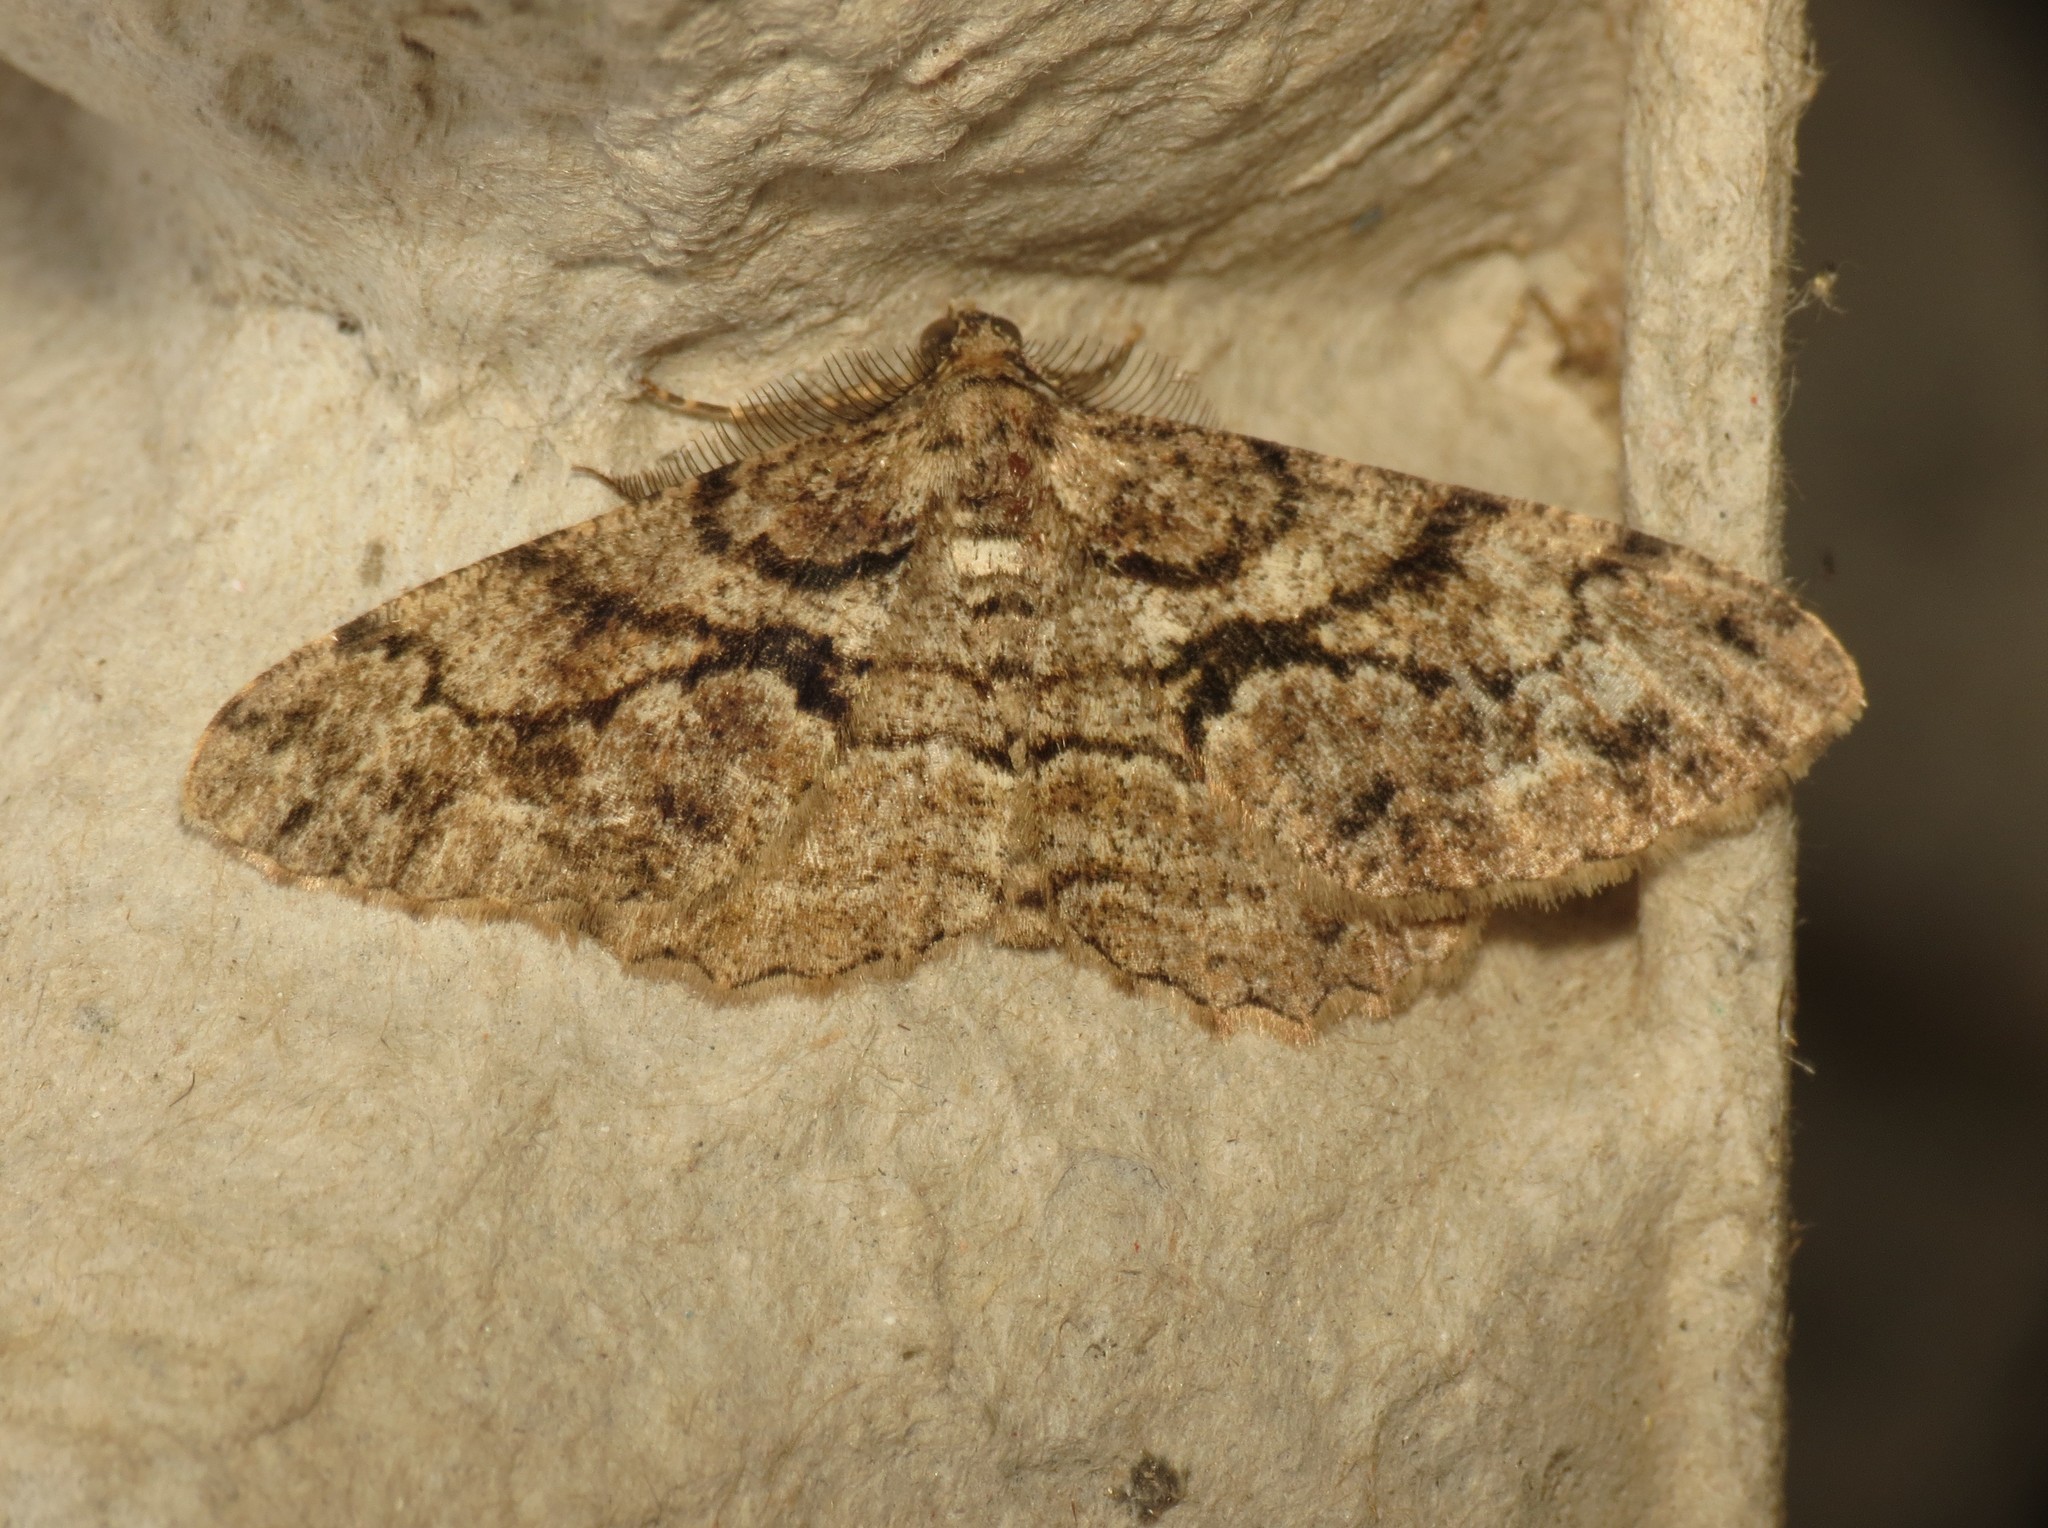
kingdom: Animalia
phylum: Arthropoda
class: Insecta
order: Lepidoptera
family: Geometridae
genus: Peribatodes
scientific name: Peribatodes secundaria
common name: Feathered beauty
